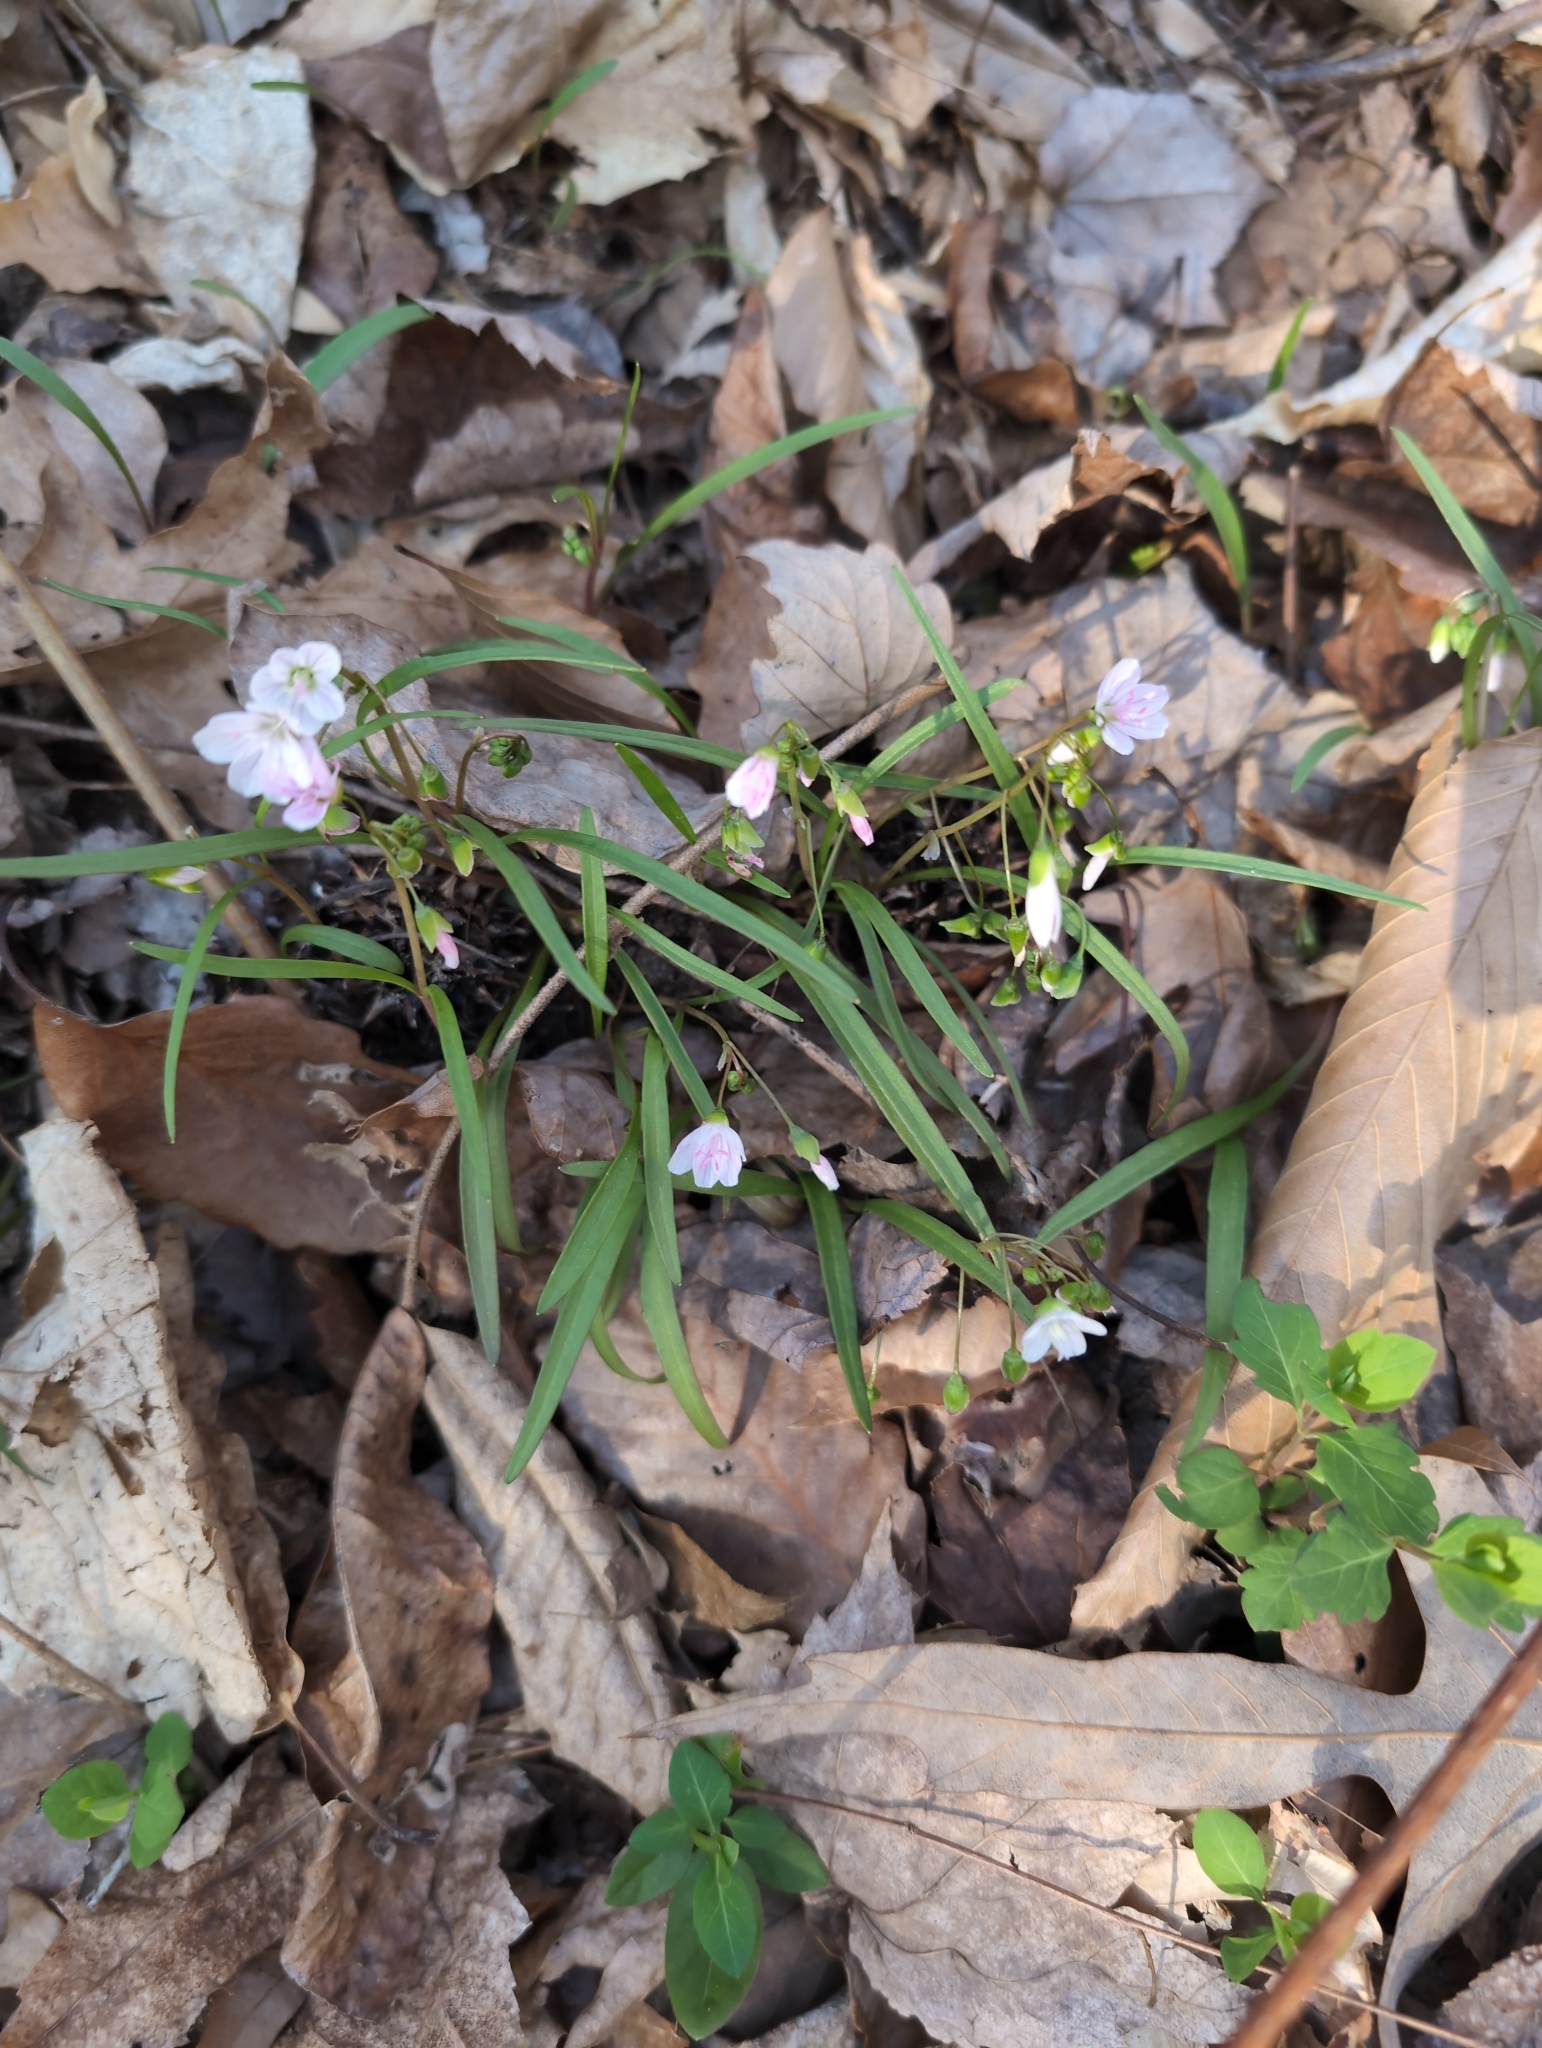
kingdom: Plantae
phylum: Tracheophyta
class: Magnoliopsida
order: Caryophyllales
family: Montiaceae
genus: Claytonia
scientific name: Claytonia virginica
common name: Virginia springbeauty
